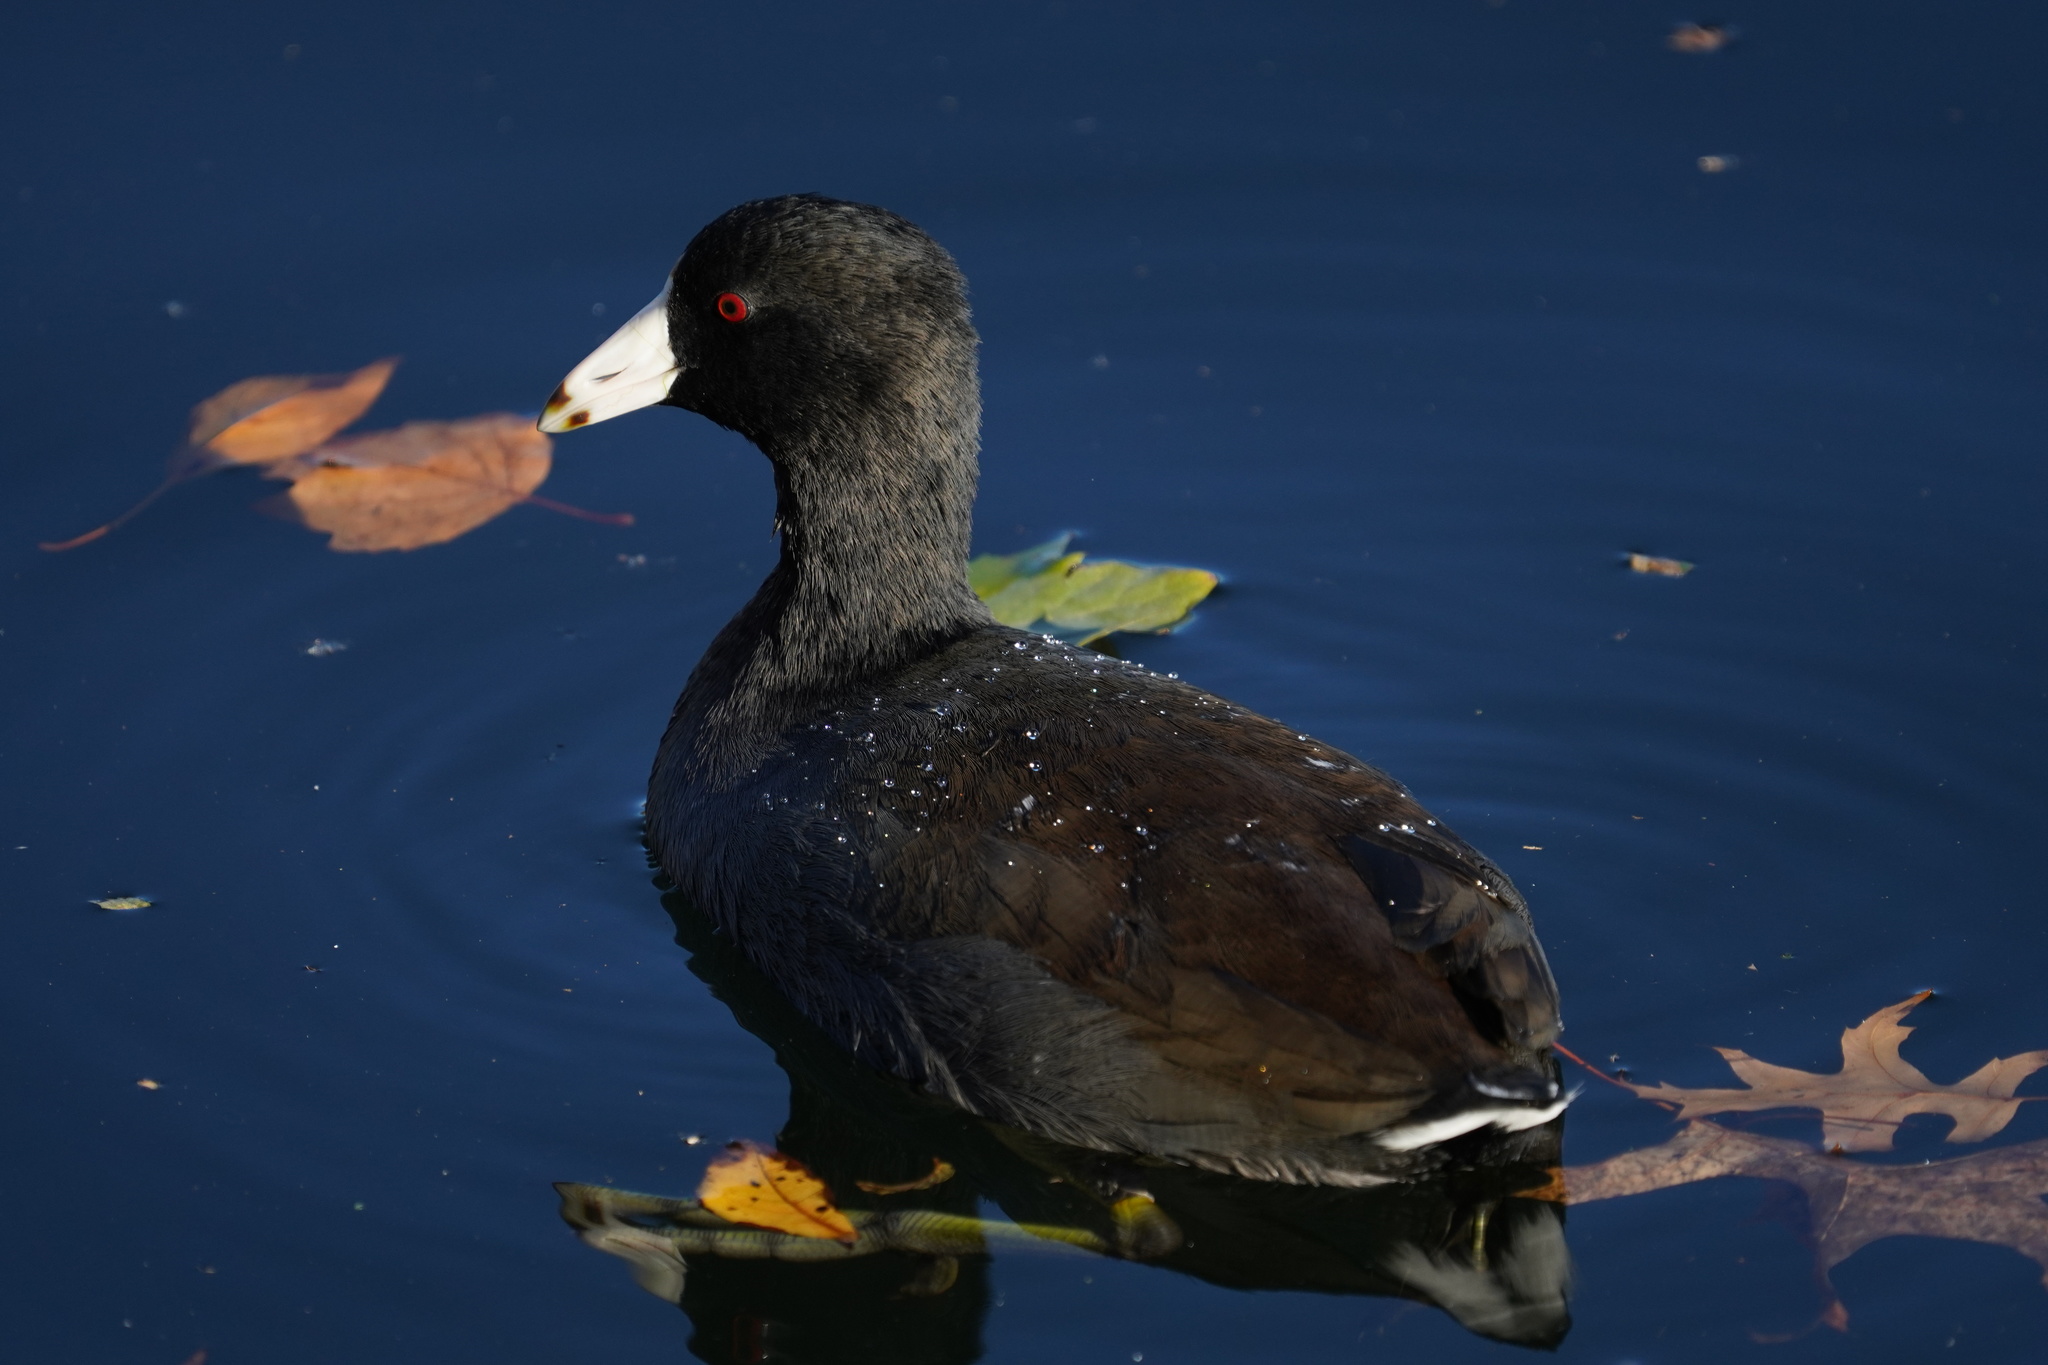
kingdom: Animalia
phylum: Chordata
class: Aves
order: Gruiformes
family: Rallidae
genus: Fulica
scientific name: Fulica americana
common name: American coot
